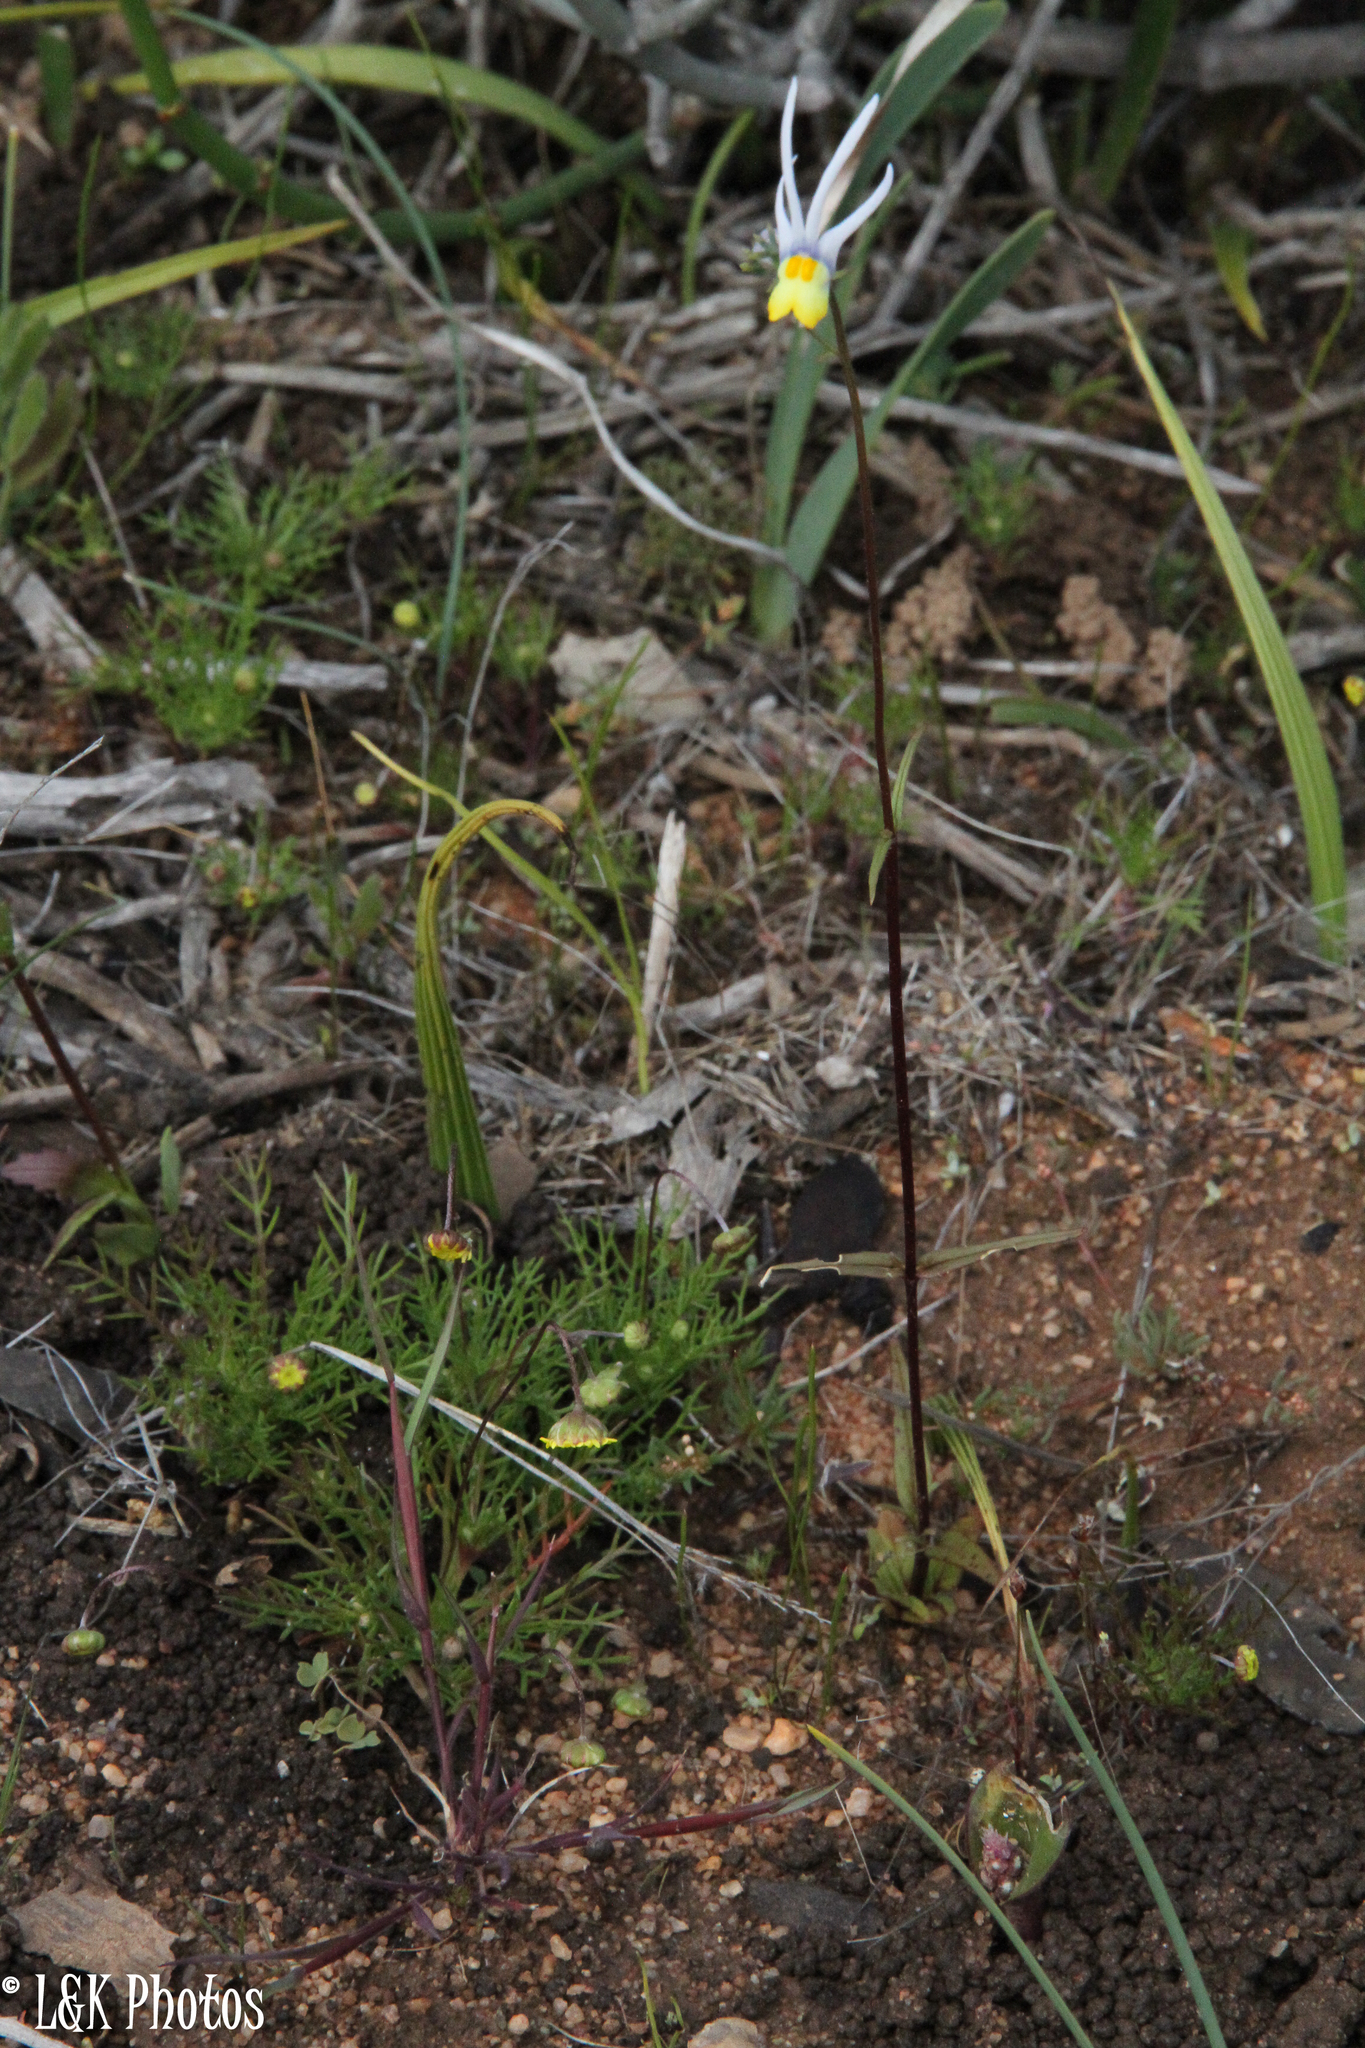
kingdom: Plantae
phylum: Tracheophyta
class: Magnoliopsida
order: Lamiales
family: Scrophulariaceae
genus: Nemesia
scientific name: Nemesia cheiranthus
